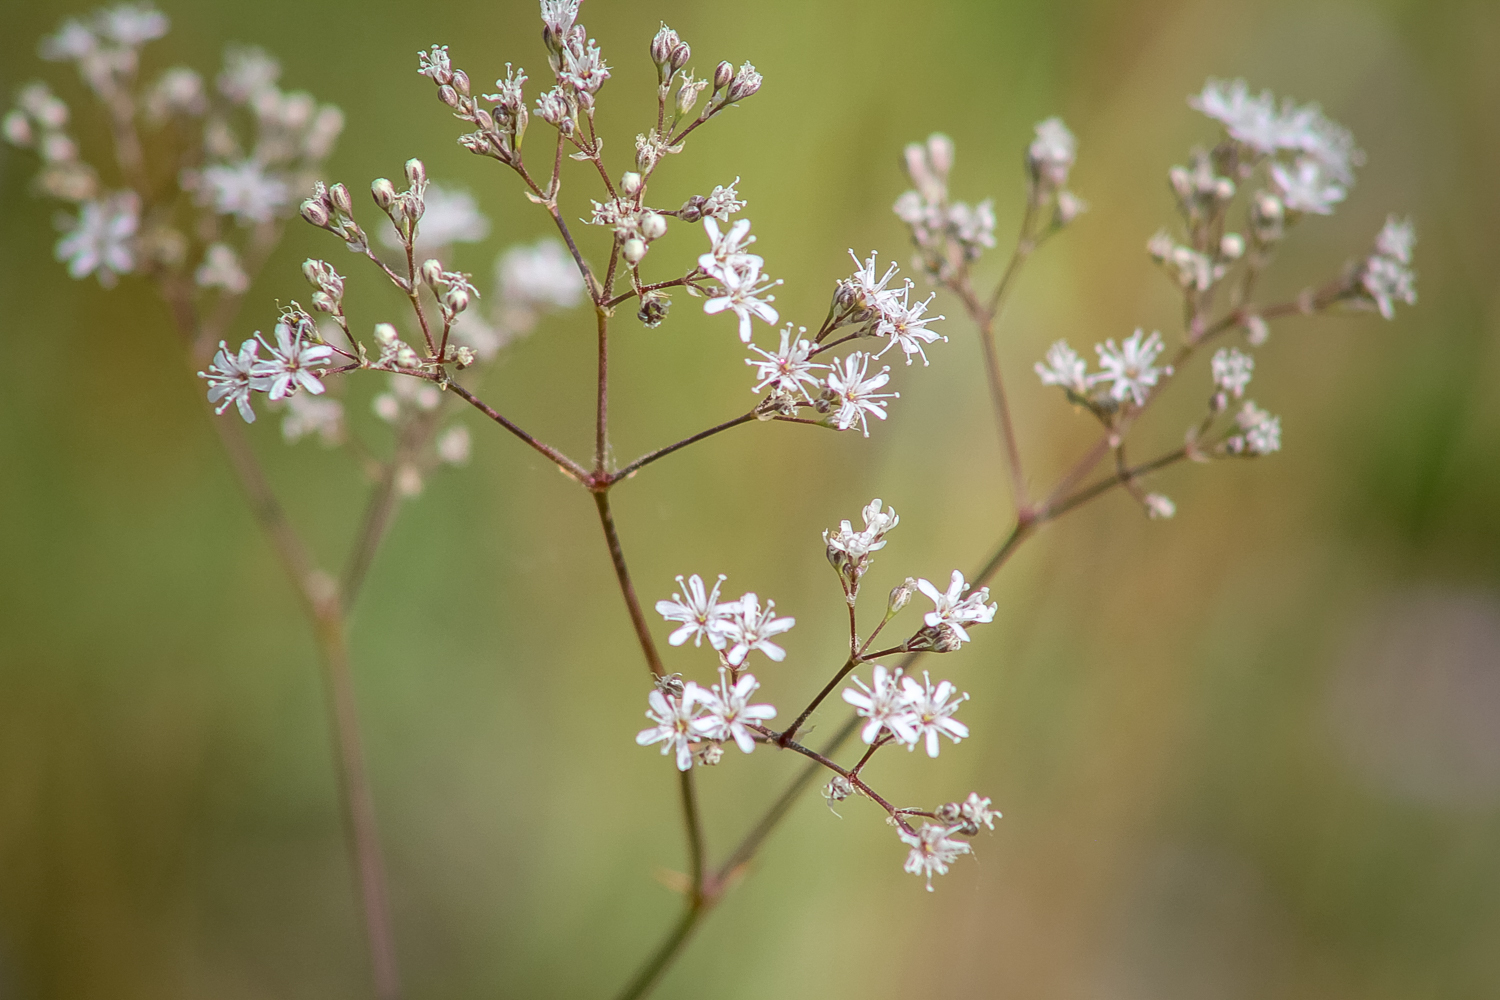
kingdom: Plantae
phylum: Tracheophyta
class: Magnoliopsida
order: Caryophyllales
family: Caryophyllaceae
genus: Gypsophila
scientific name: Gypsophila altissima
